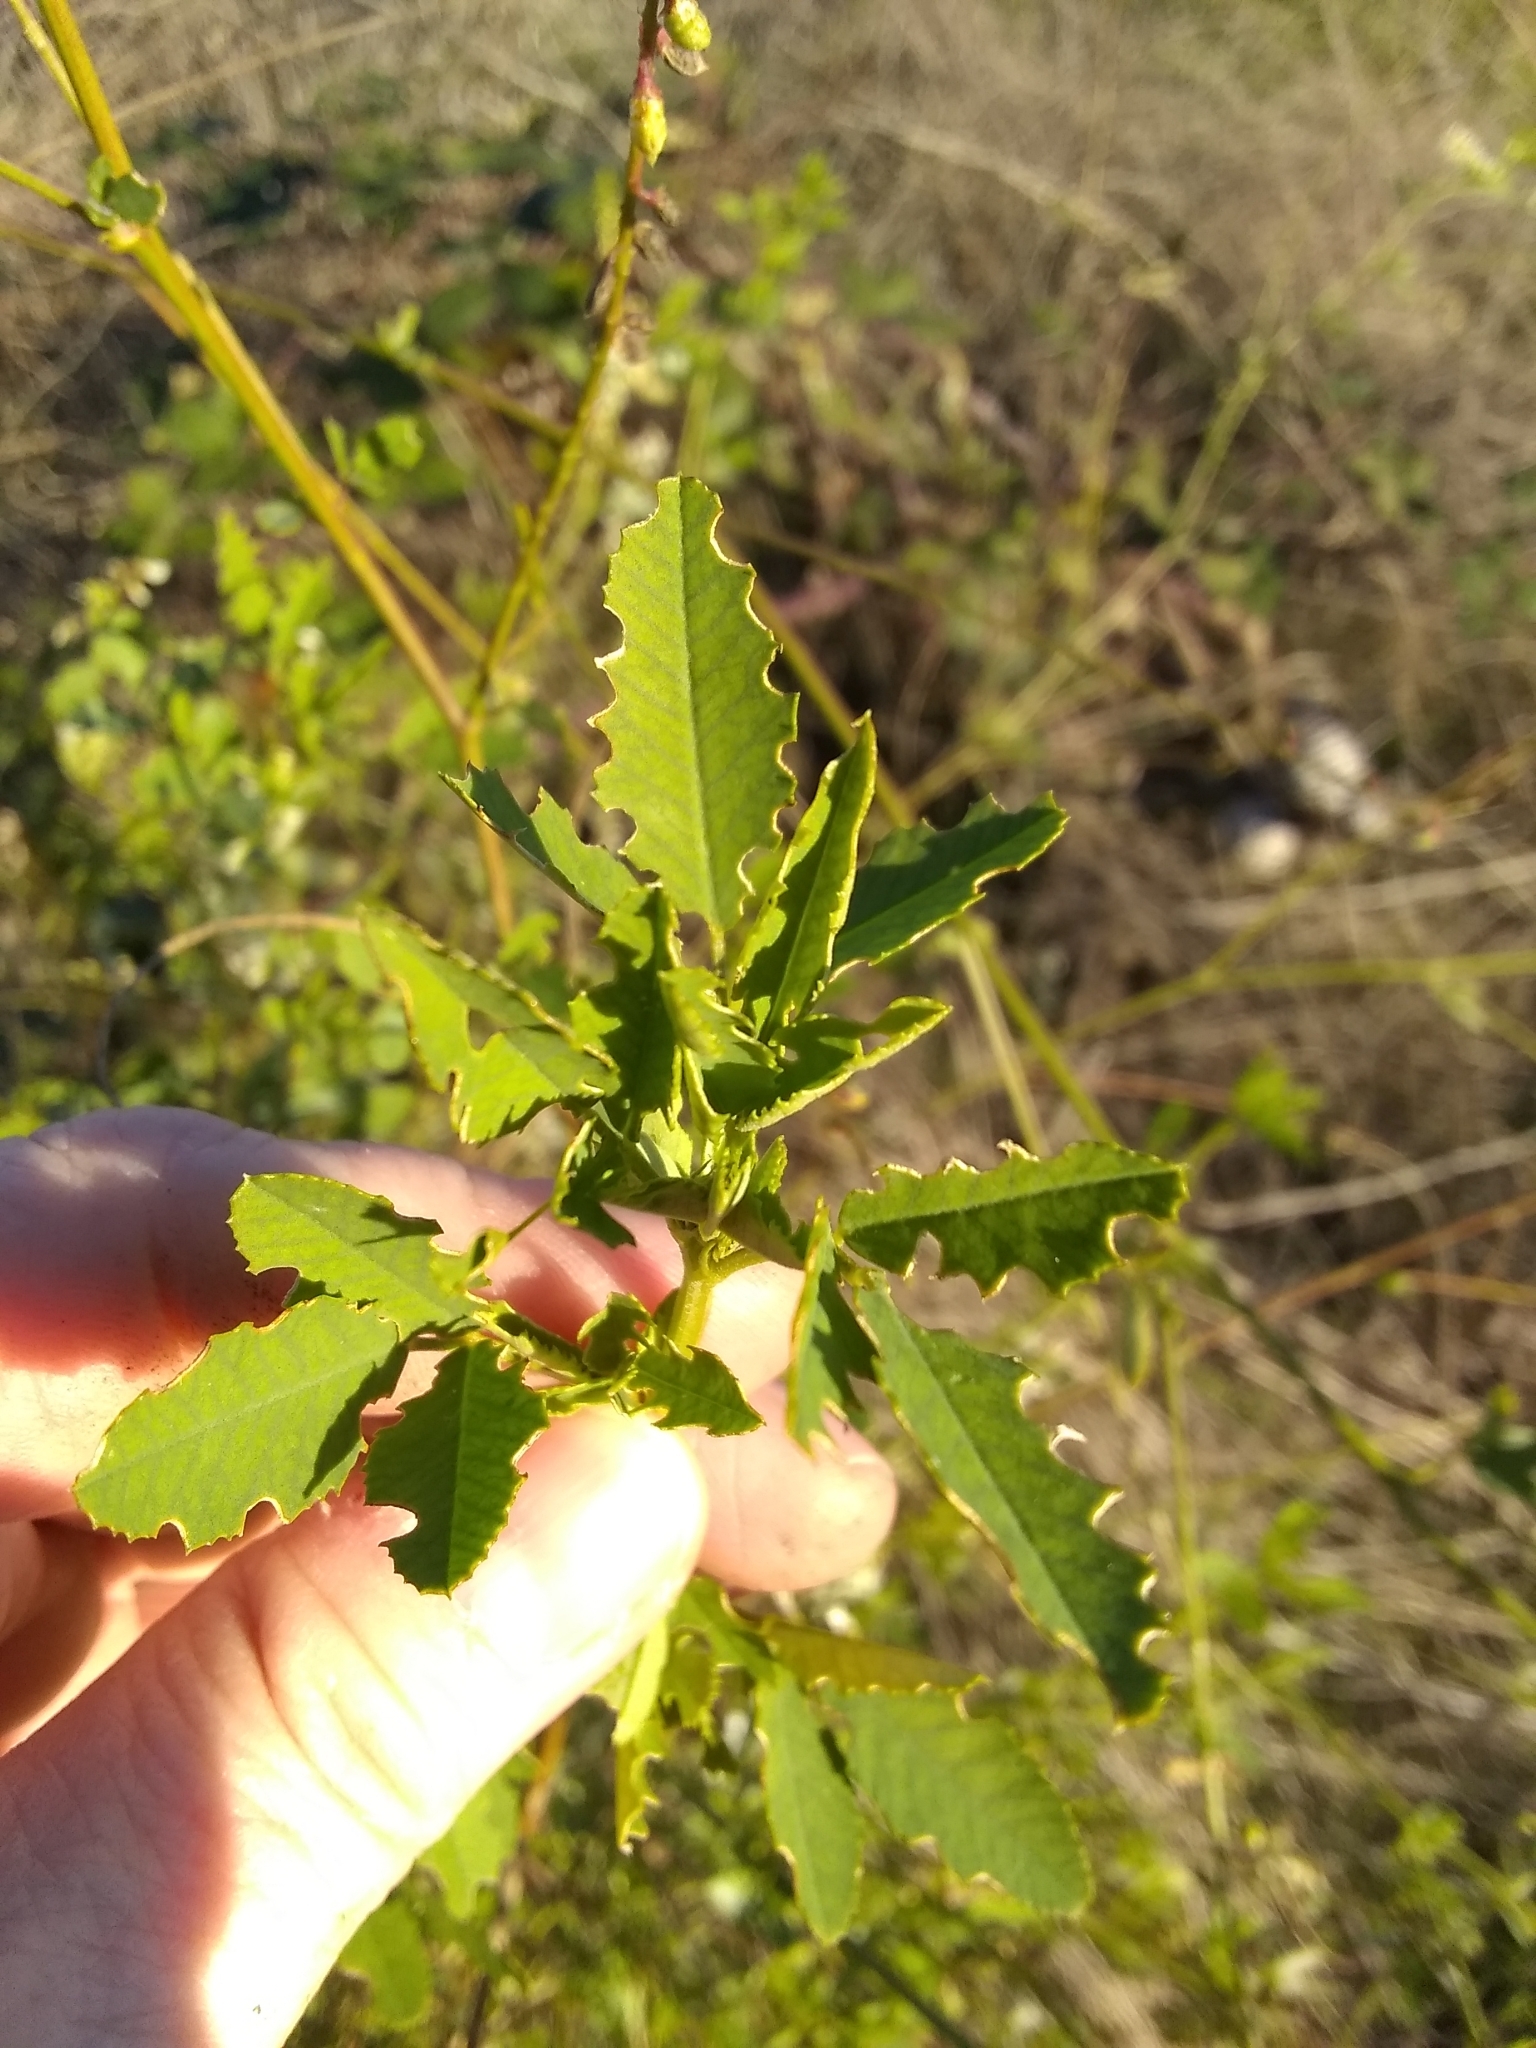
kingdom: Plantae
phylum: Tracheophyta
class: Magnoliopsida
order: Fabales
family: Fabaceae
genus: Melilotus
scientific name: Melilotus albus
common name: White melilot
